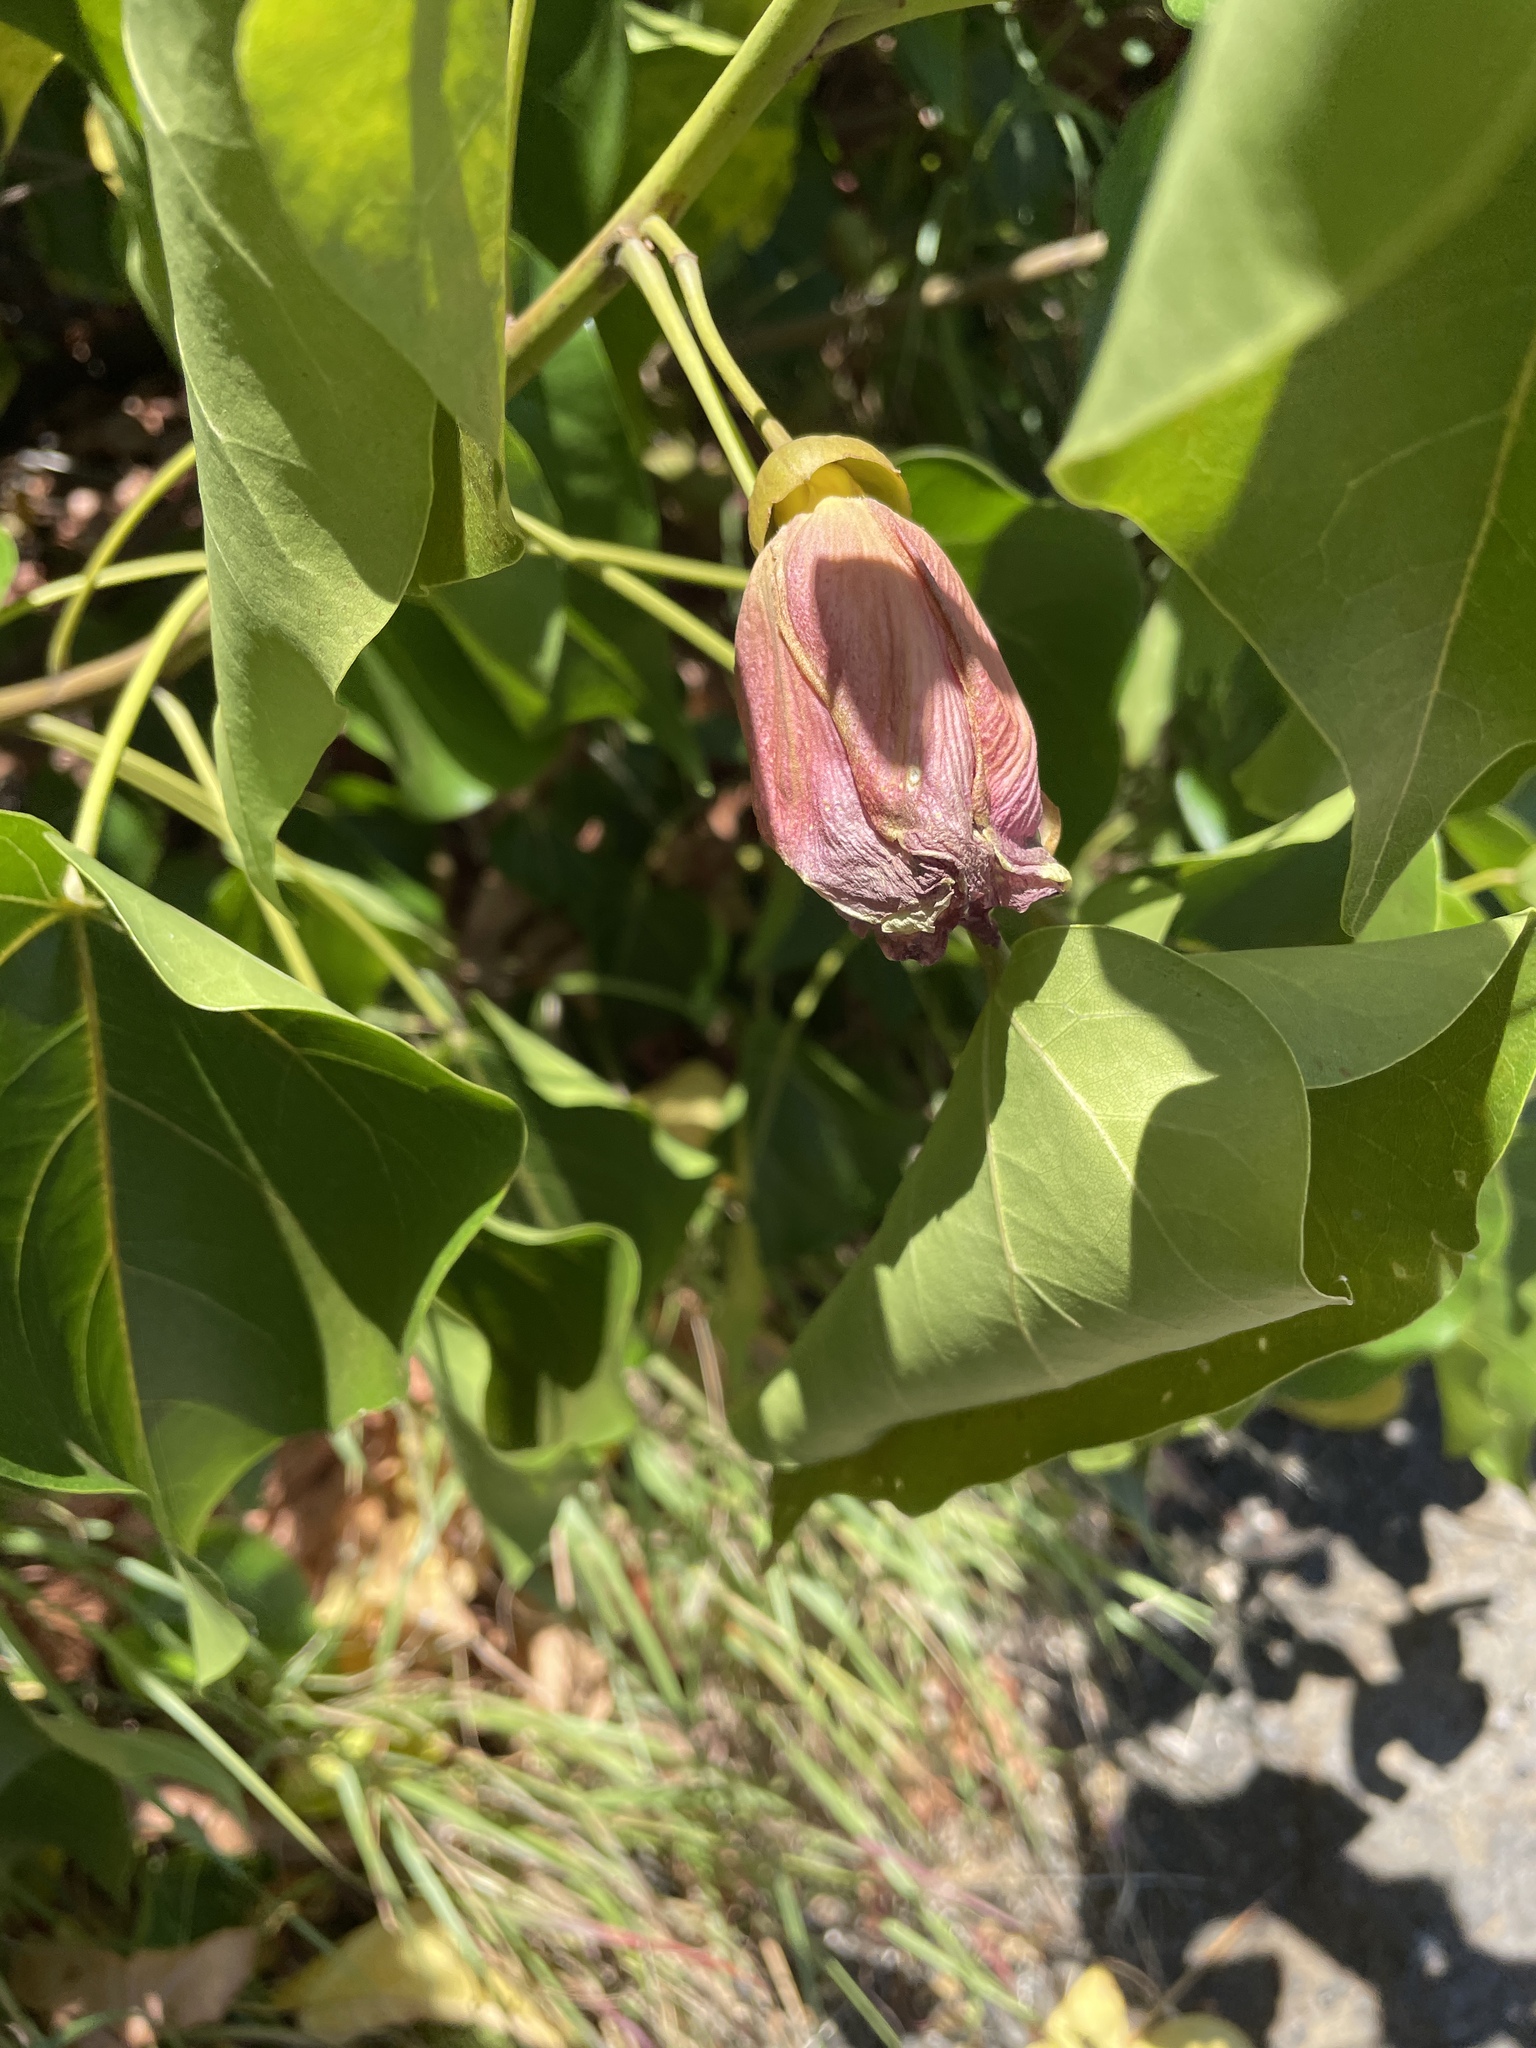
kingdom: Plantae
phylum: Tracheophyta
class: Magnoliopsida
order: Malvales
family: Malvaceae
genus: Thespesia
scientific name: Thespesia populnea
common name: Seaside mahoe
